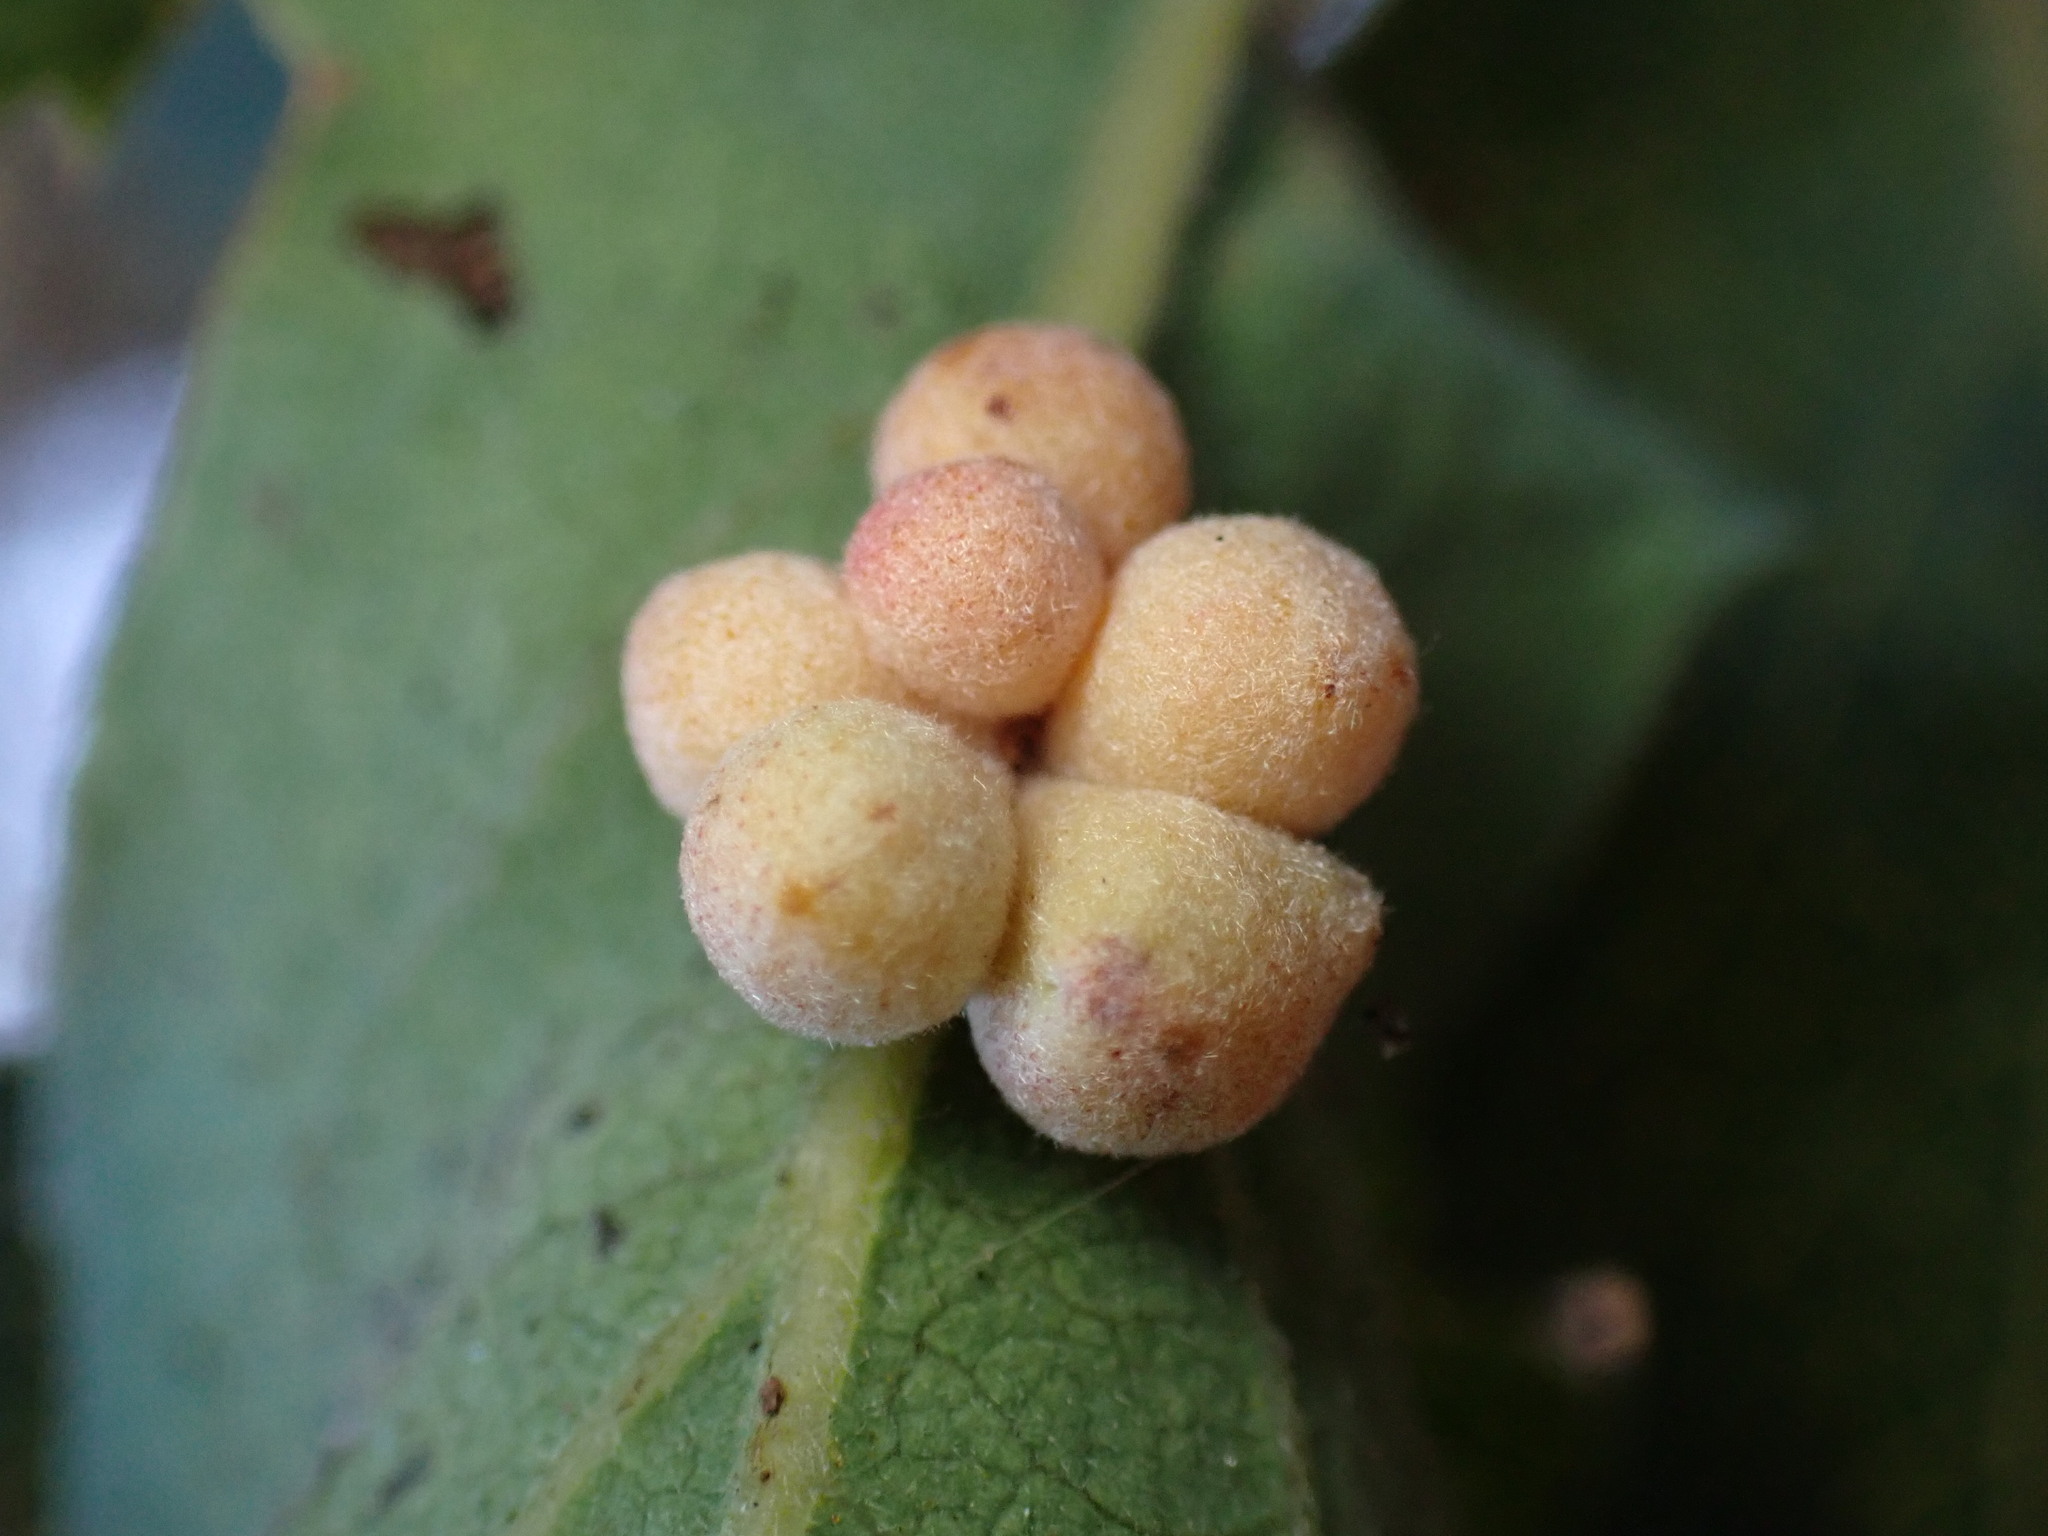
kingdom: Animalia
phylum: Arthropoda
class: Insecta
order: Hymenoptera
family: Cynipidae
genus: Andricus
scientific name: Andricus
